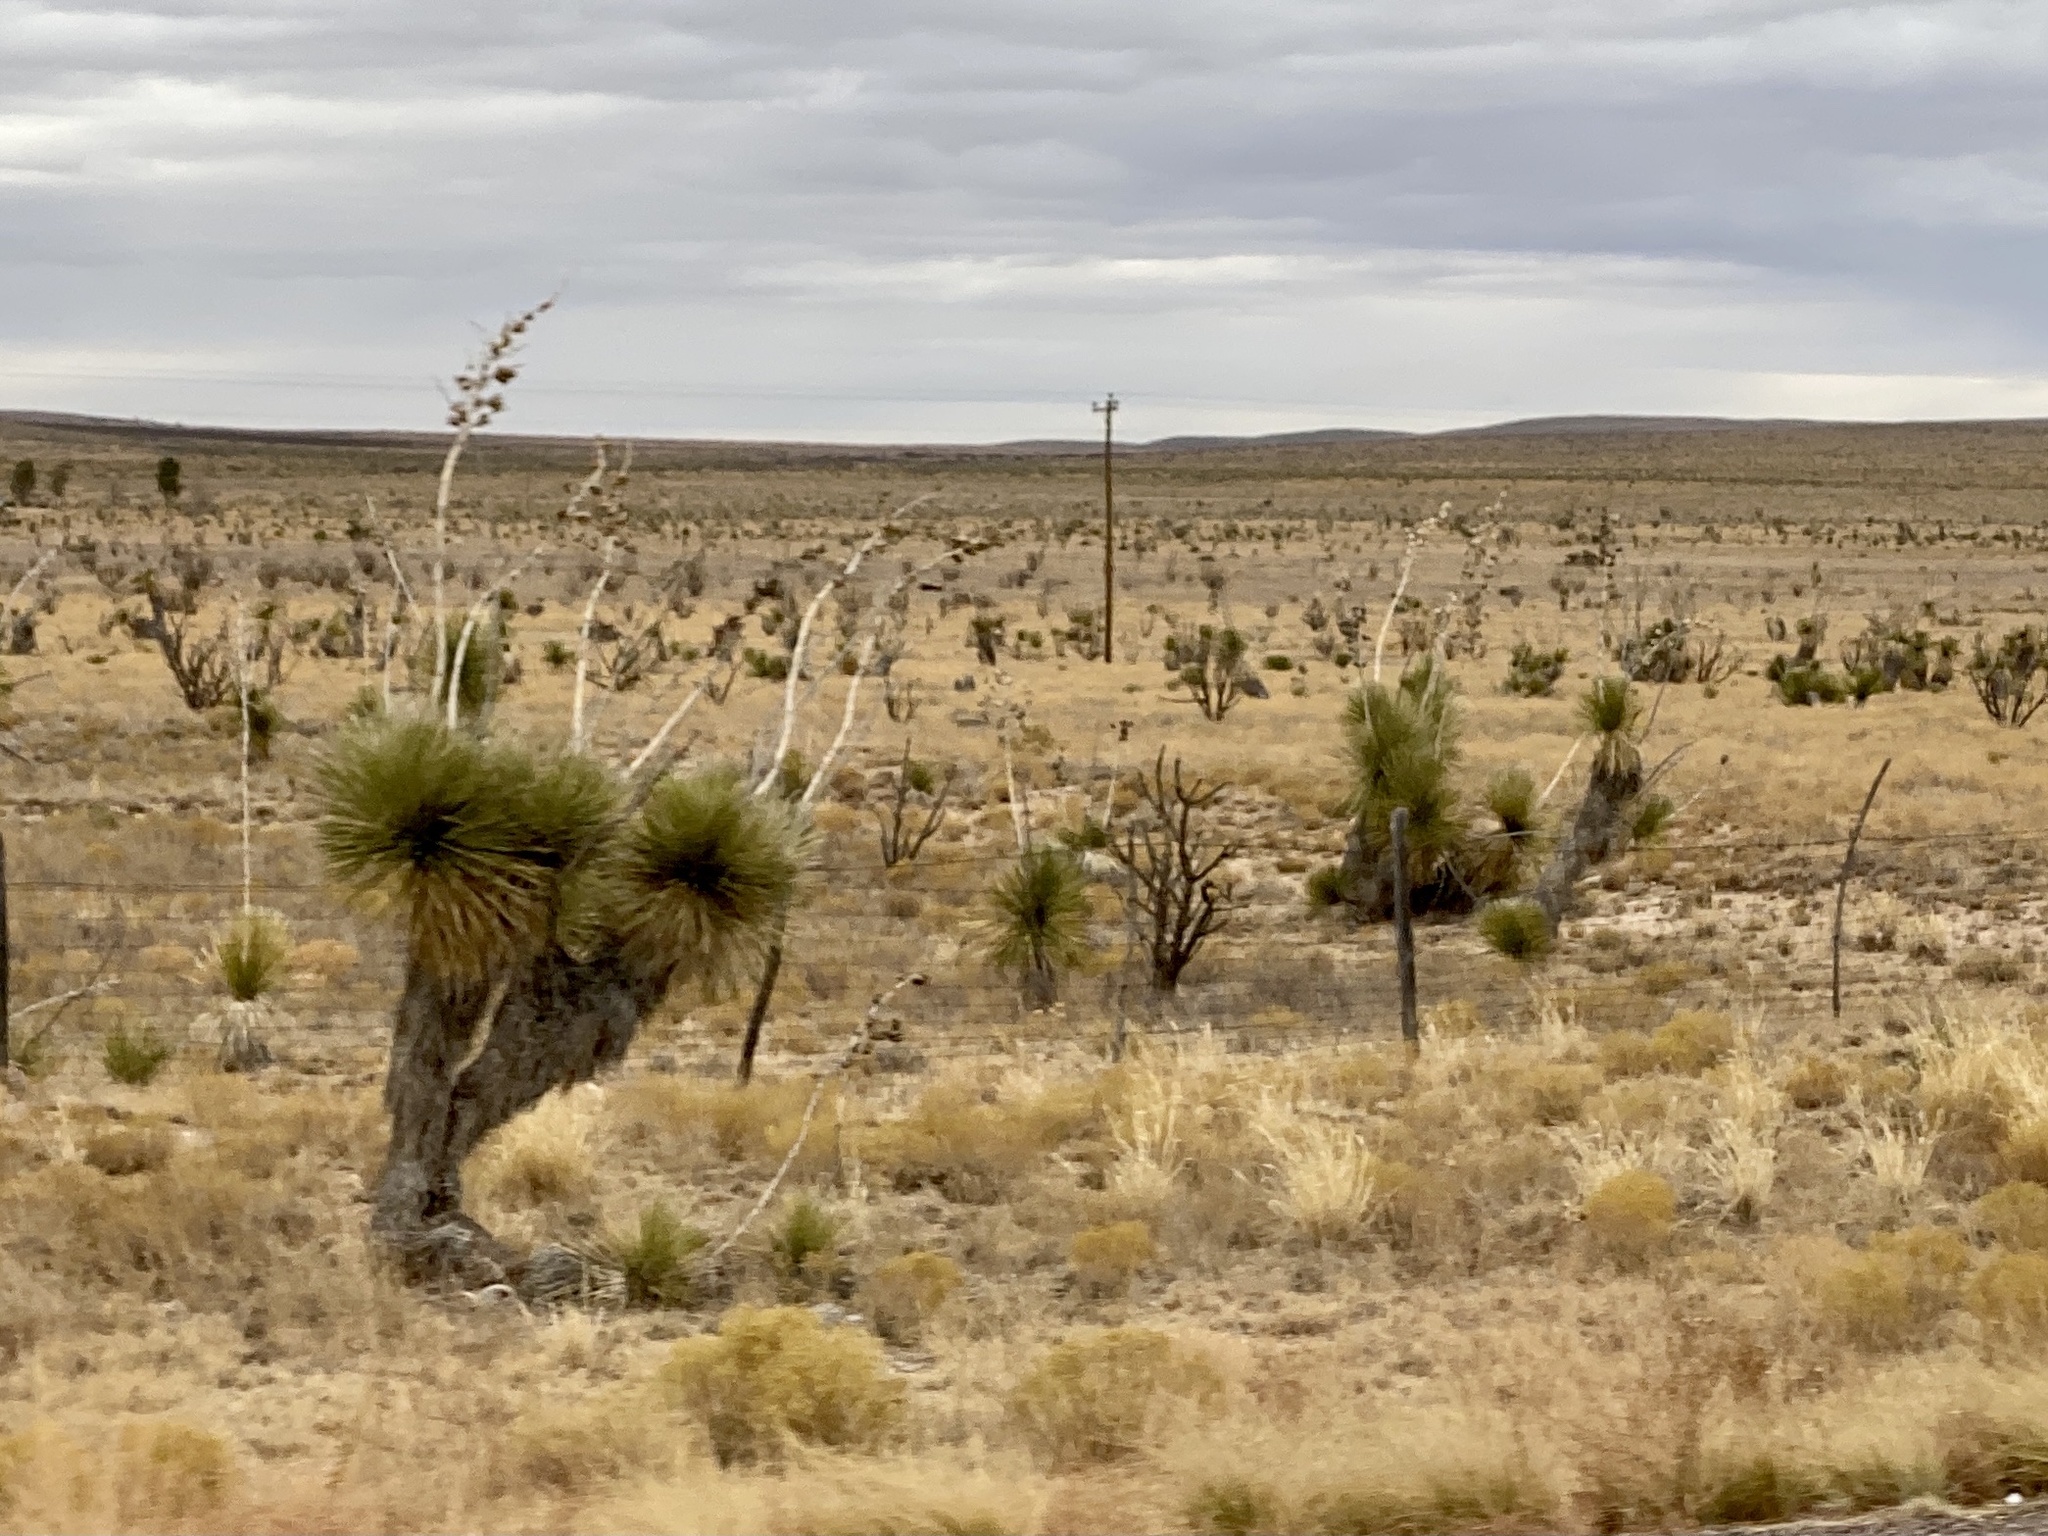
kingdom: Plantae
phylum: Tracheophyta
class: Liliopsida
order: Asparagales
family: Asparagaceae
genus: Yucca
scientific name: Yucca elata
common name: Palmella
